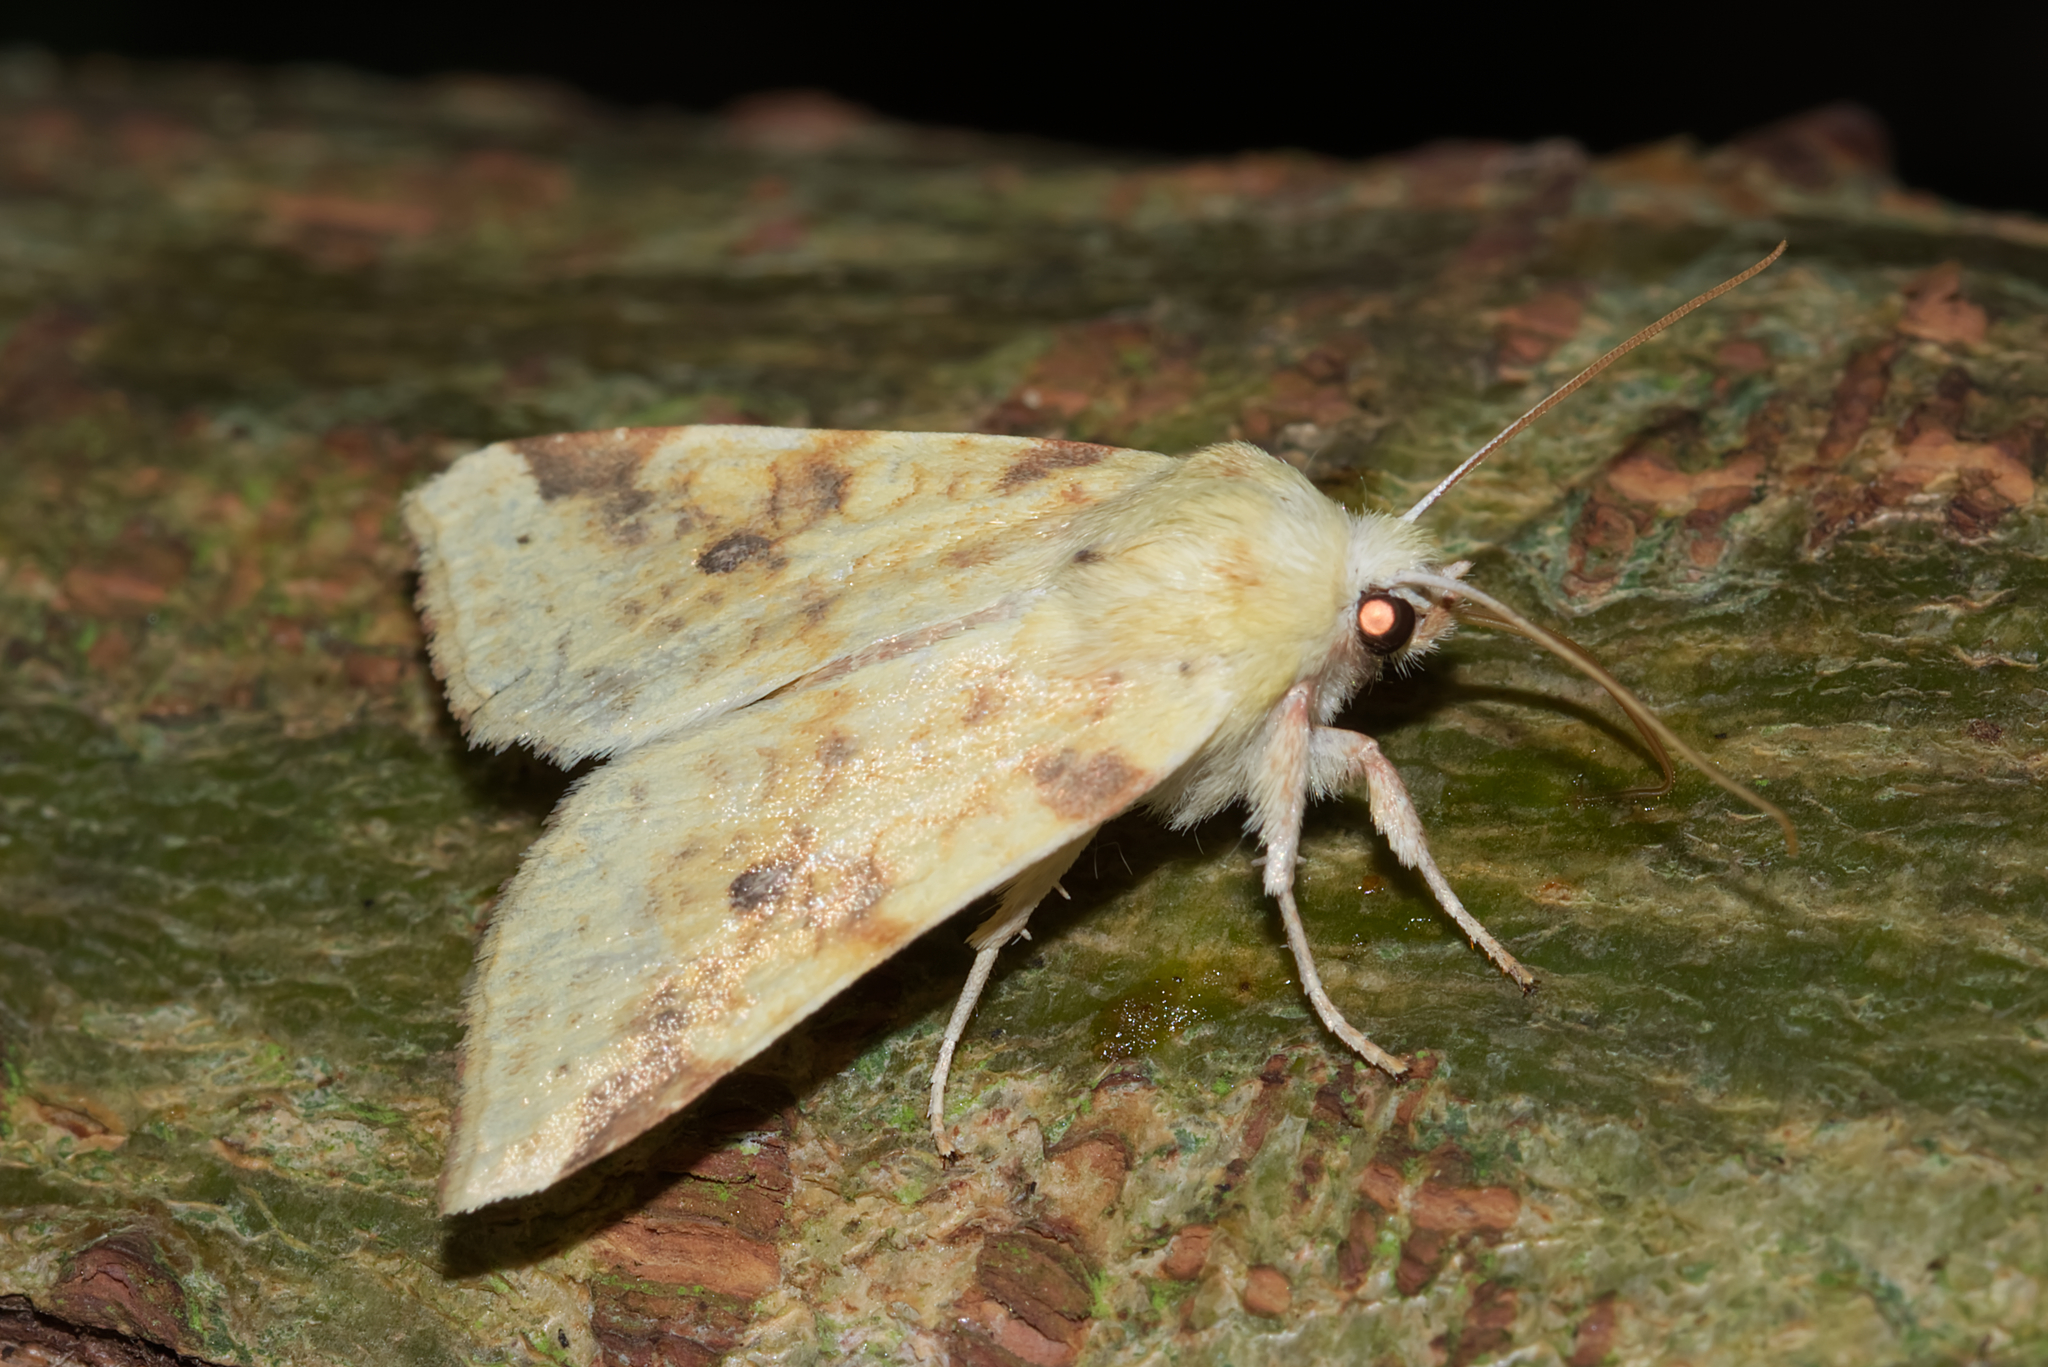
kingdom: Animalia
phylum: Arthropoda
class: Insecta
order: Lepidoptera
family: Noctuidae
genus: Xanthia
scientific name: Xanthia icteritia
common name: The sallow
